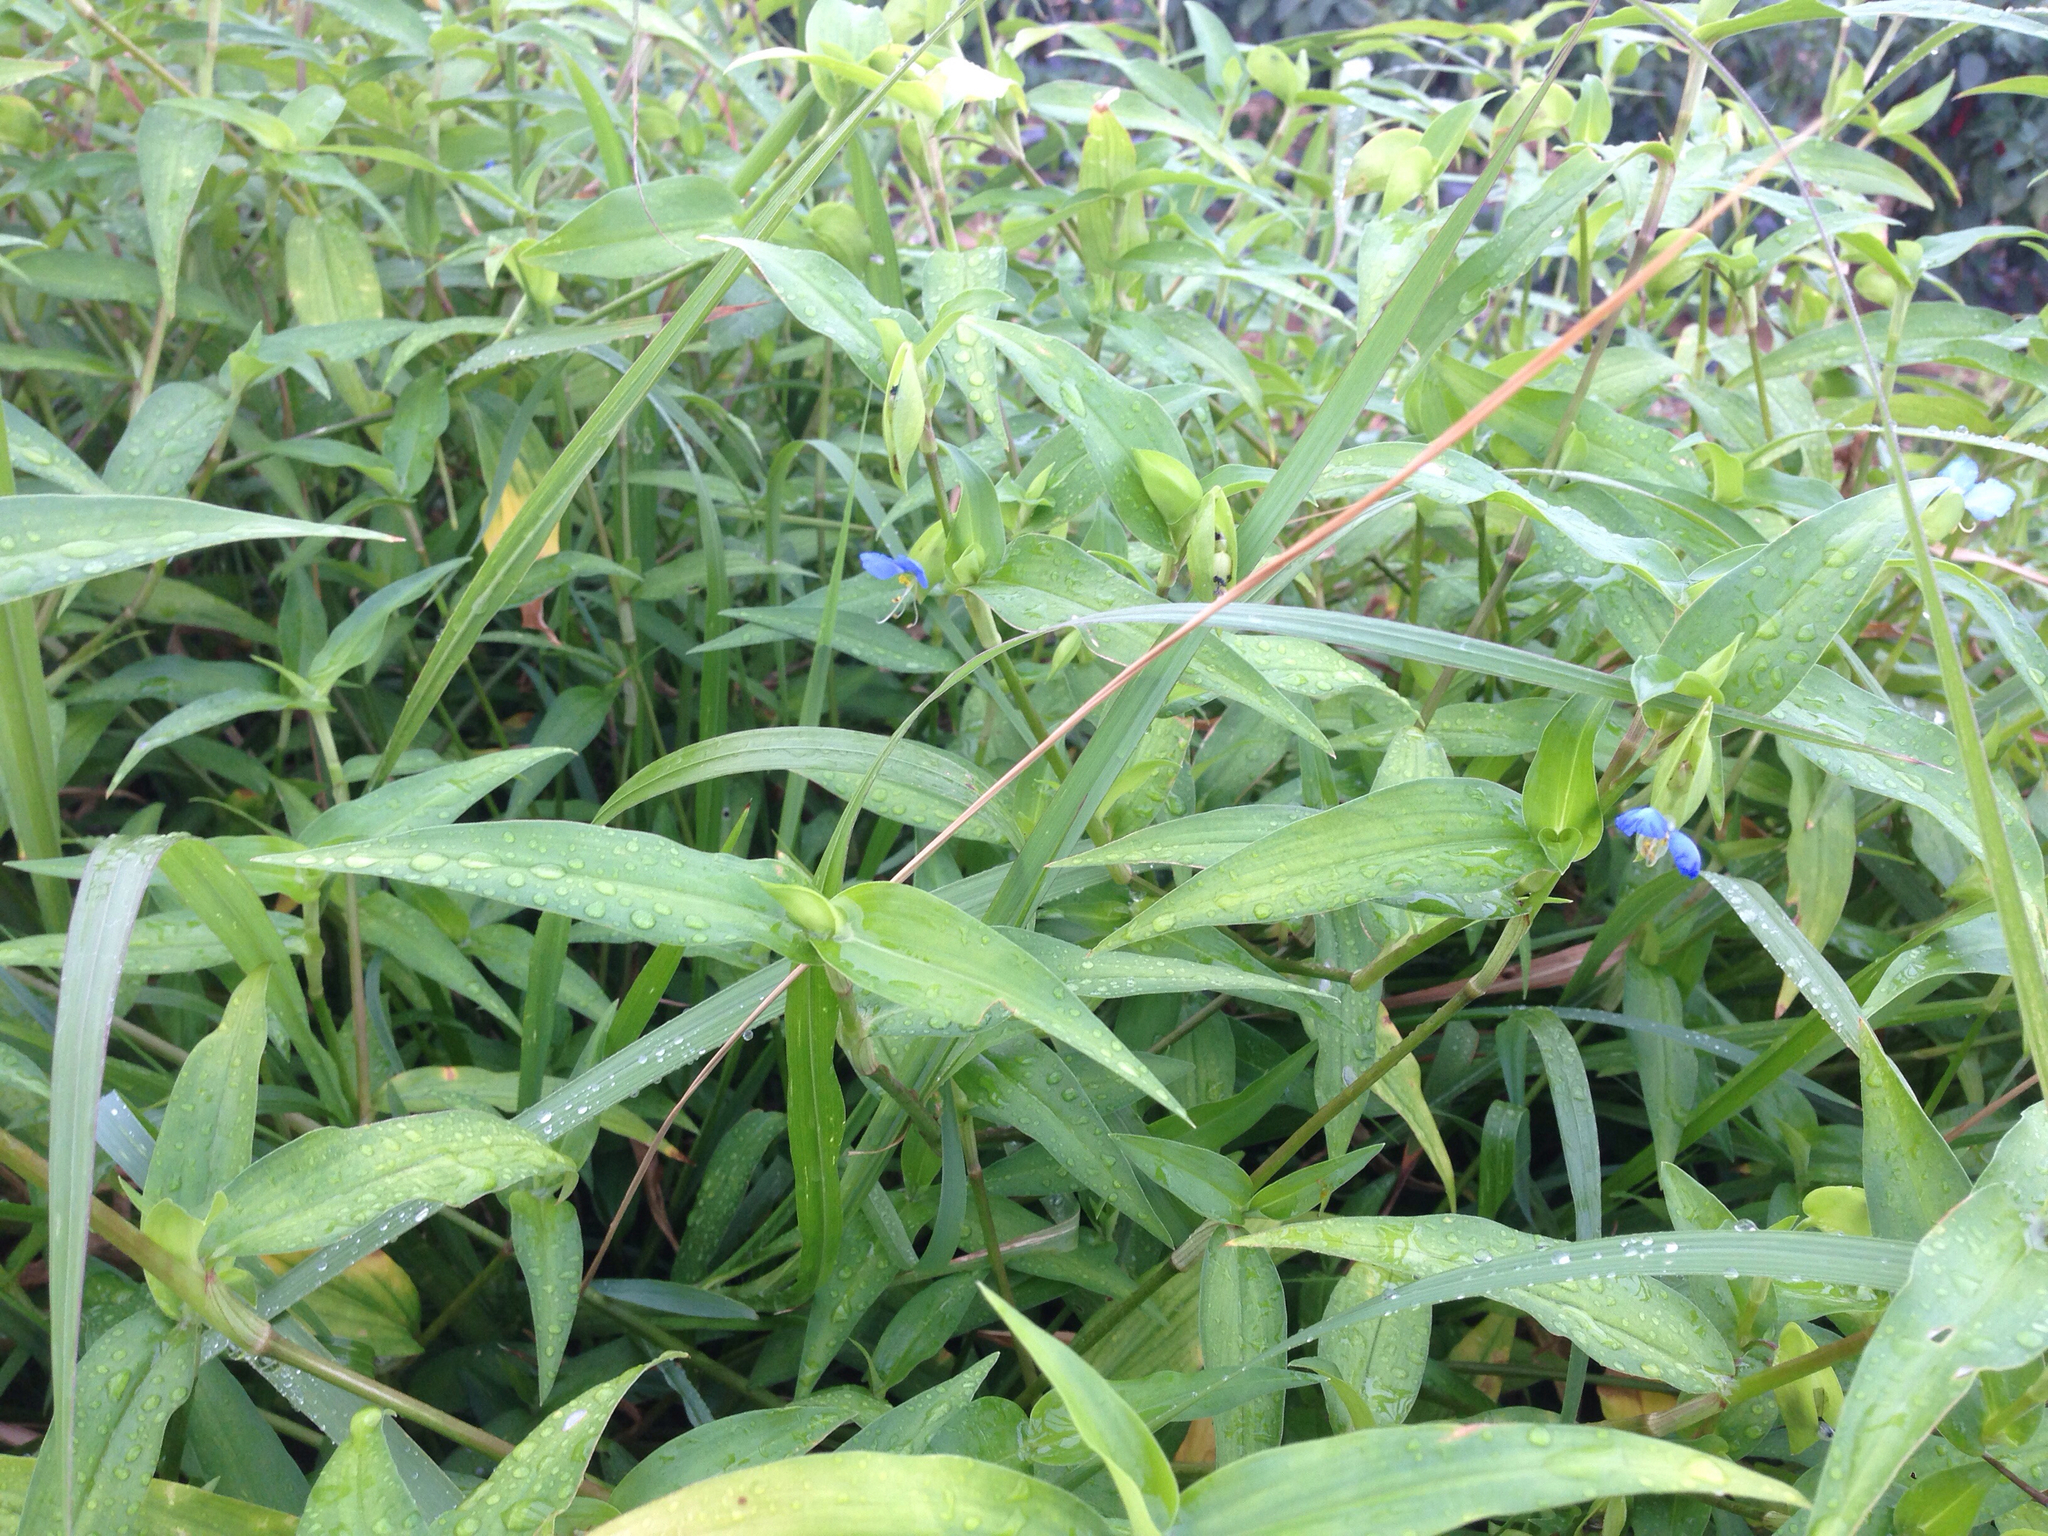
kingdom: Plantae
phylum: Tracheophyta
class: Liliopsida
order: Commelinales
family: Commelinaceae
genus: Commelina
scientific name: Commelina communis
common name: Asiatic dayflower
